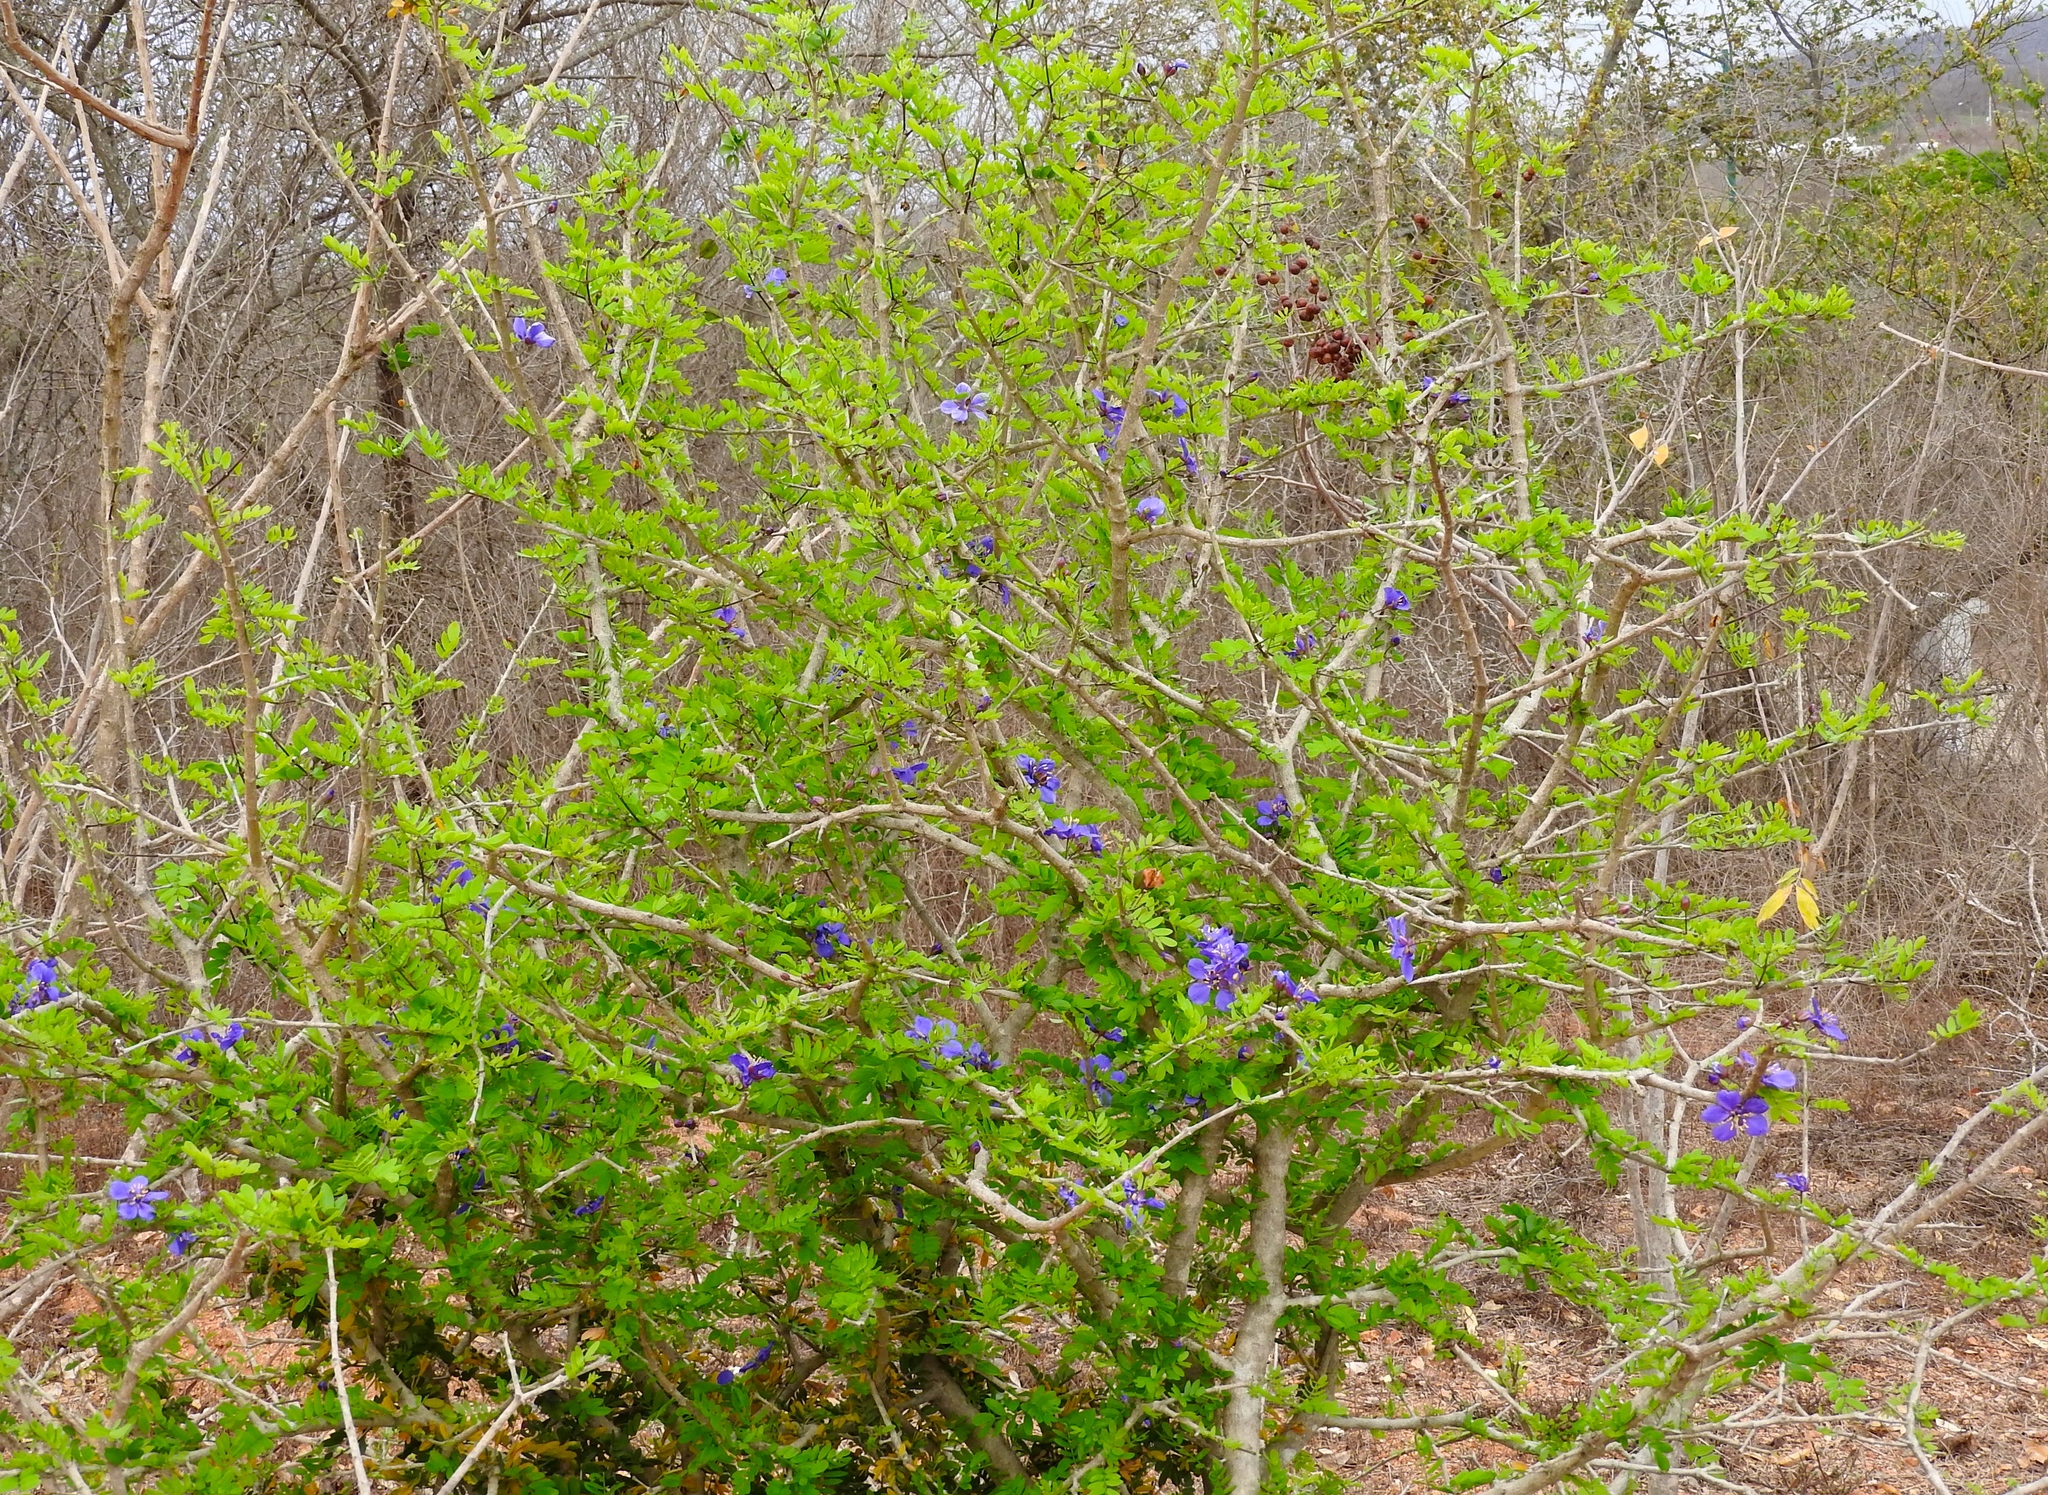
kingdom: Plantae
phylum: Tracheophyta
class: Magnoliopsida
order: Zygophyllales
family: Zygophyllaceae
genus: Guaiacum
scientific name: Guaiacum coulteri
